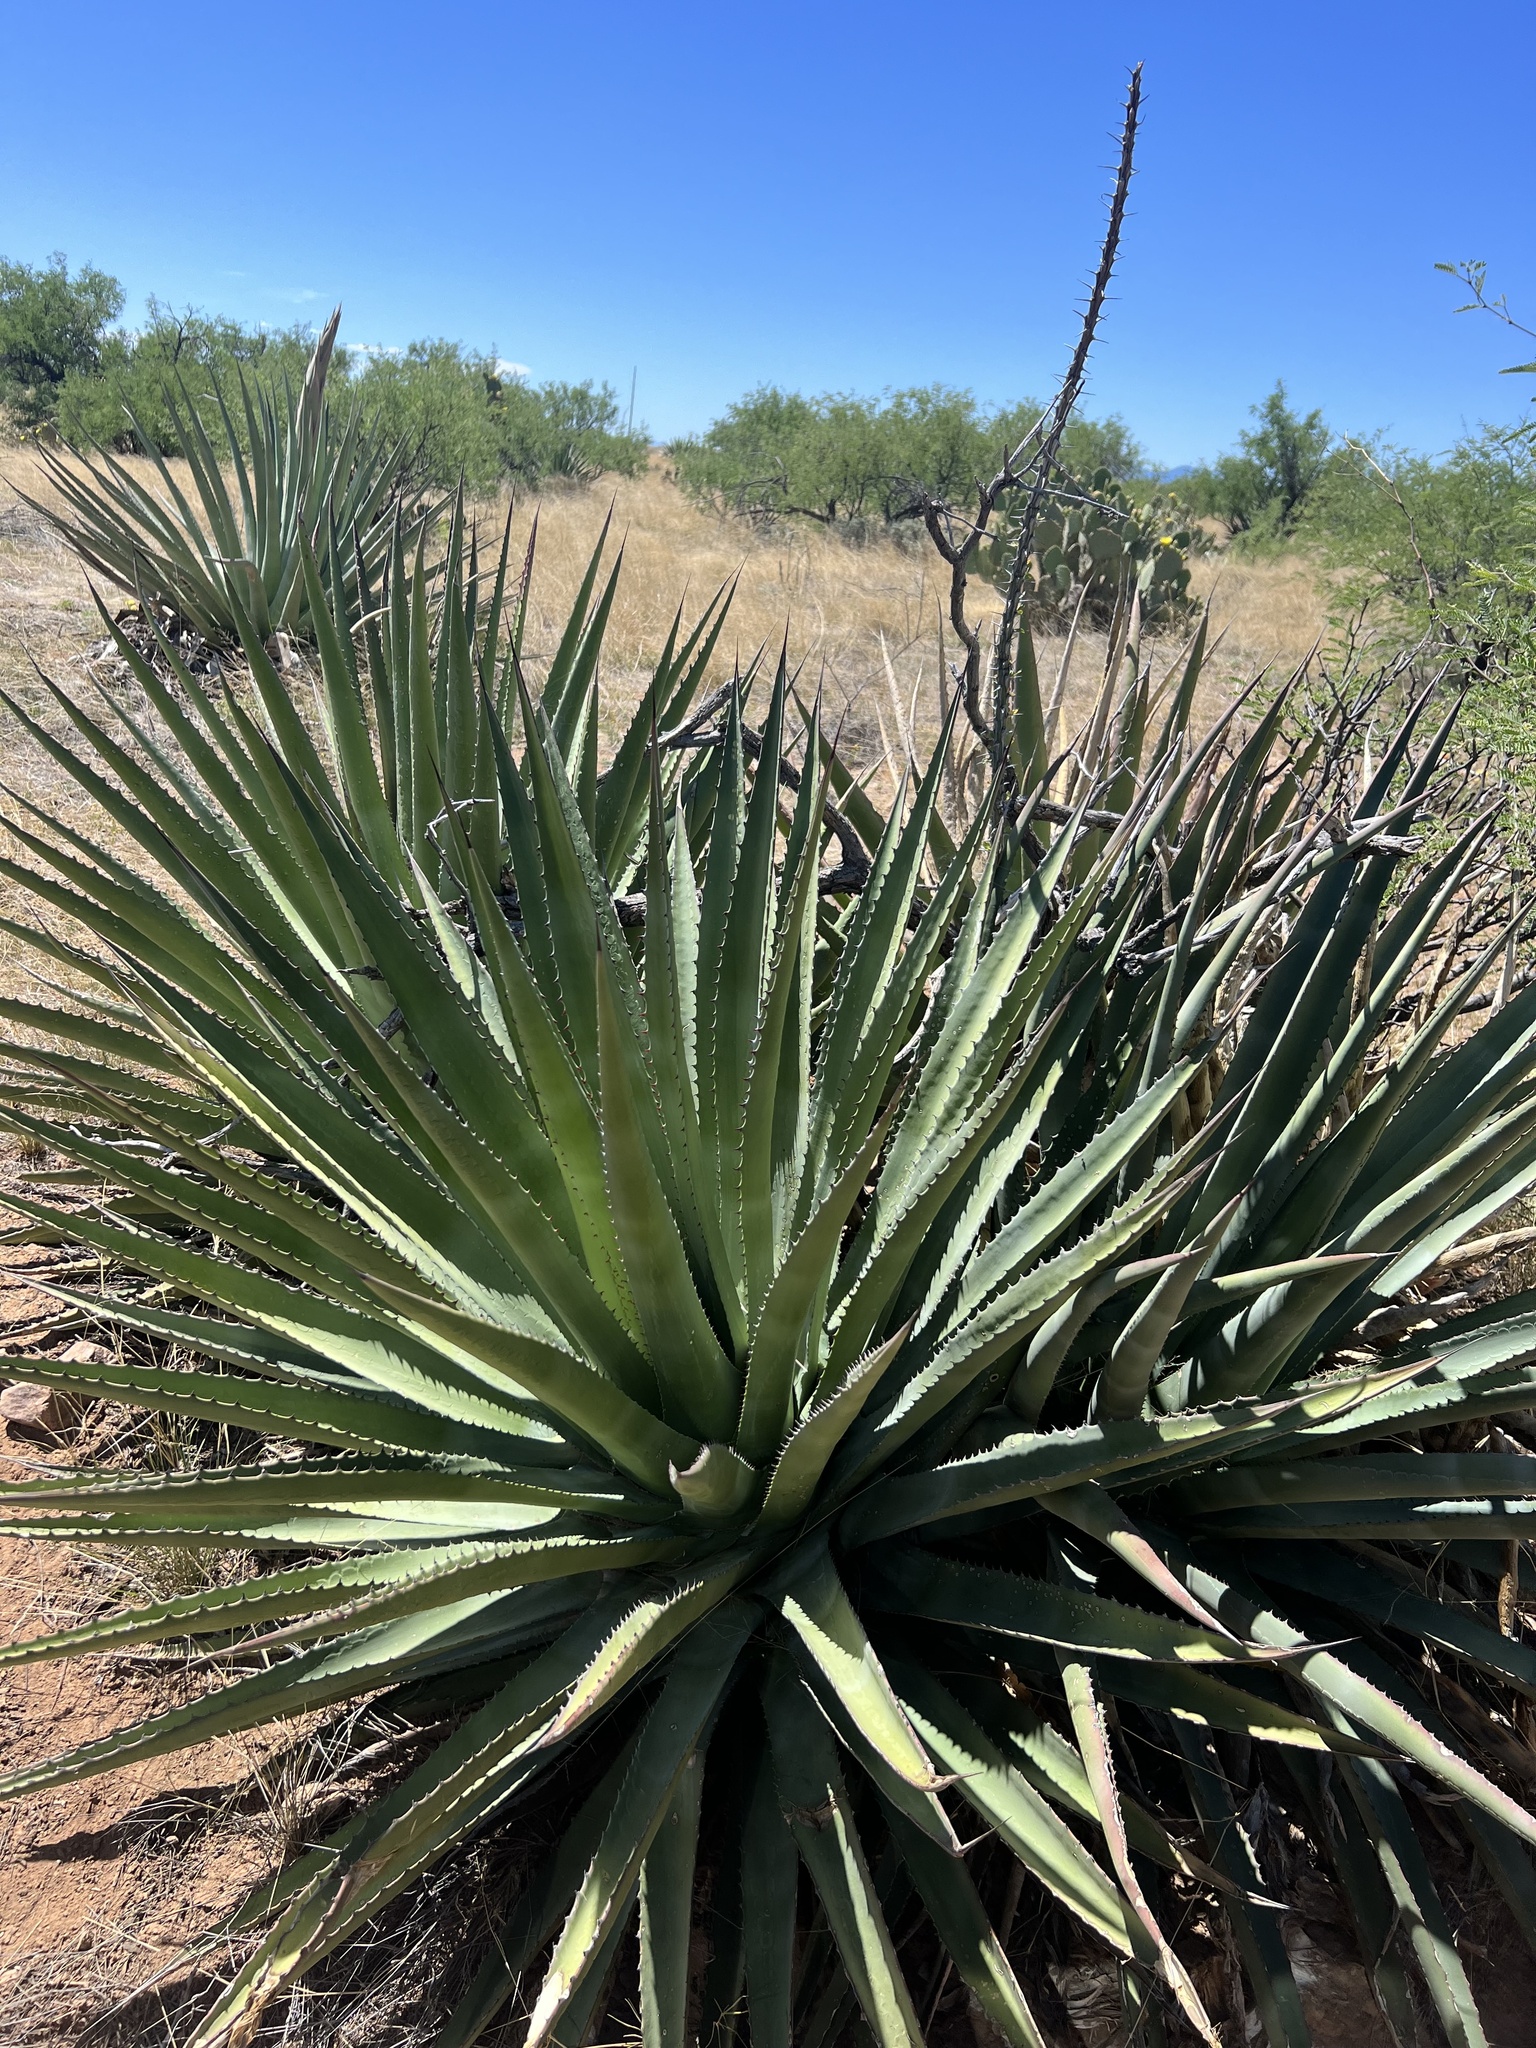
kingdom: Plantae
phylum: Tracheophyta
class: Liliopsida
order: Asparagales
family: Asparagaceae
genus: Agave
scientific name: Agave palmeri
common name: Palmer agave
